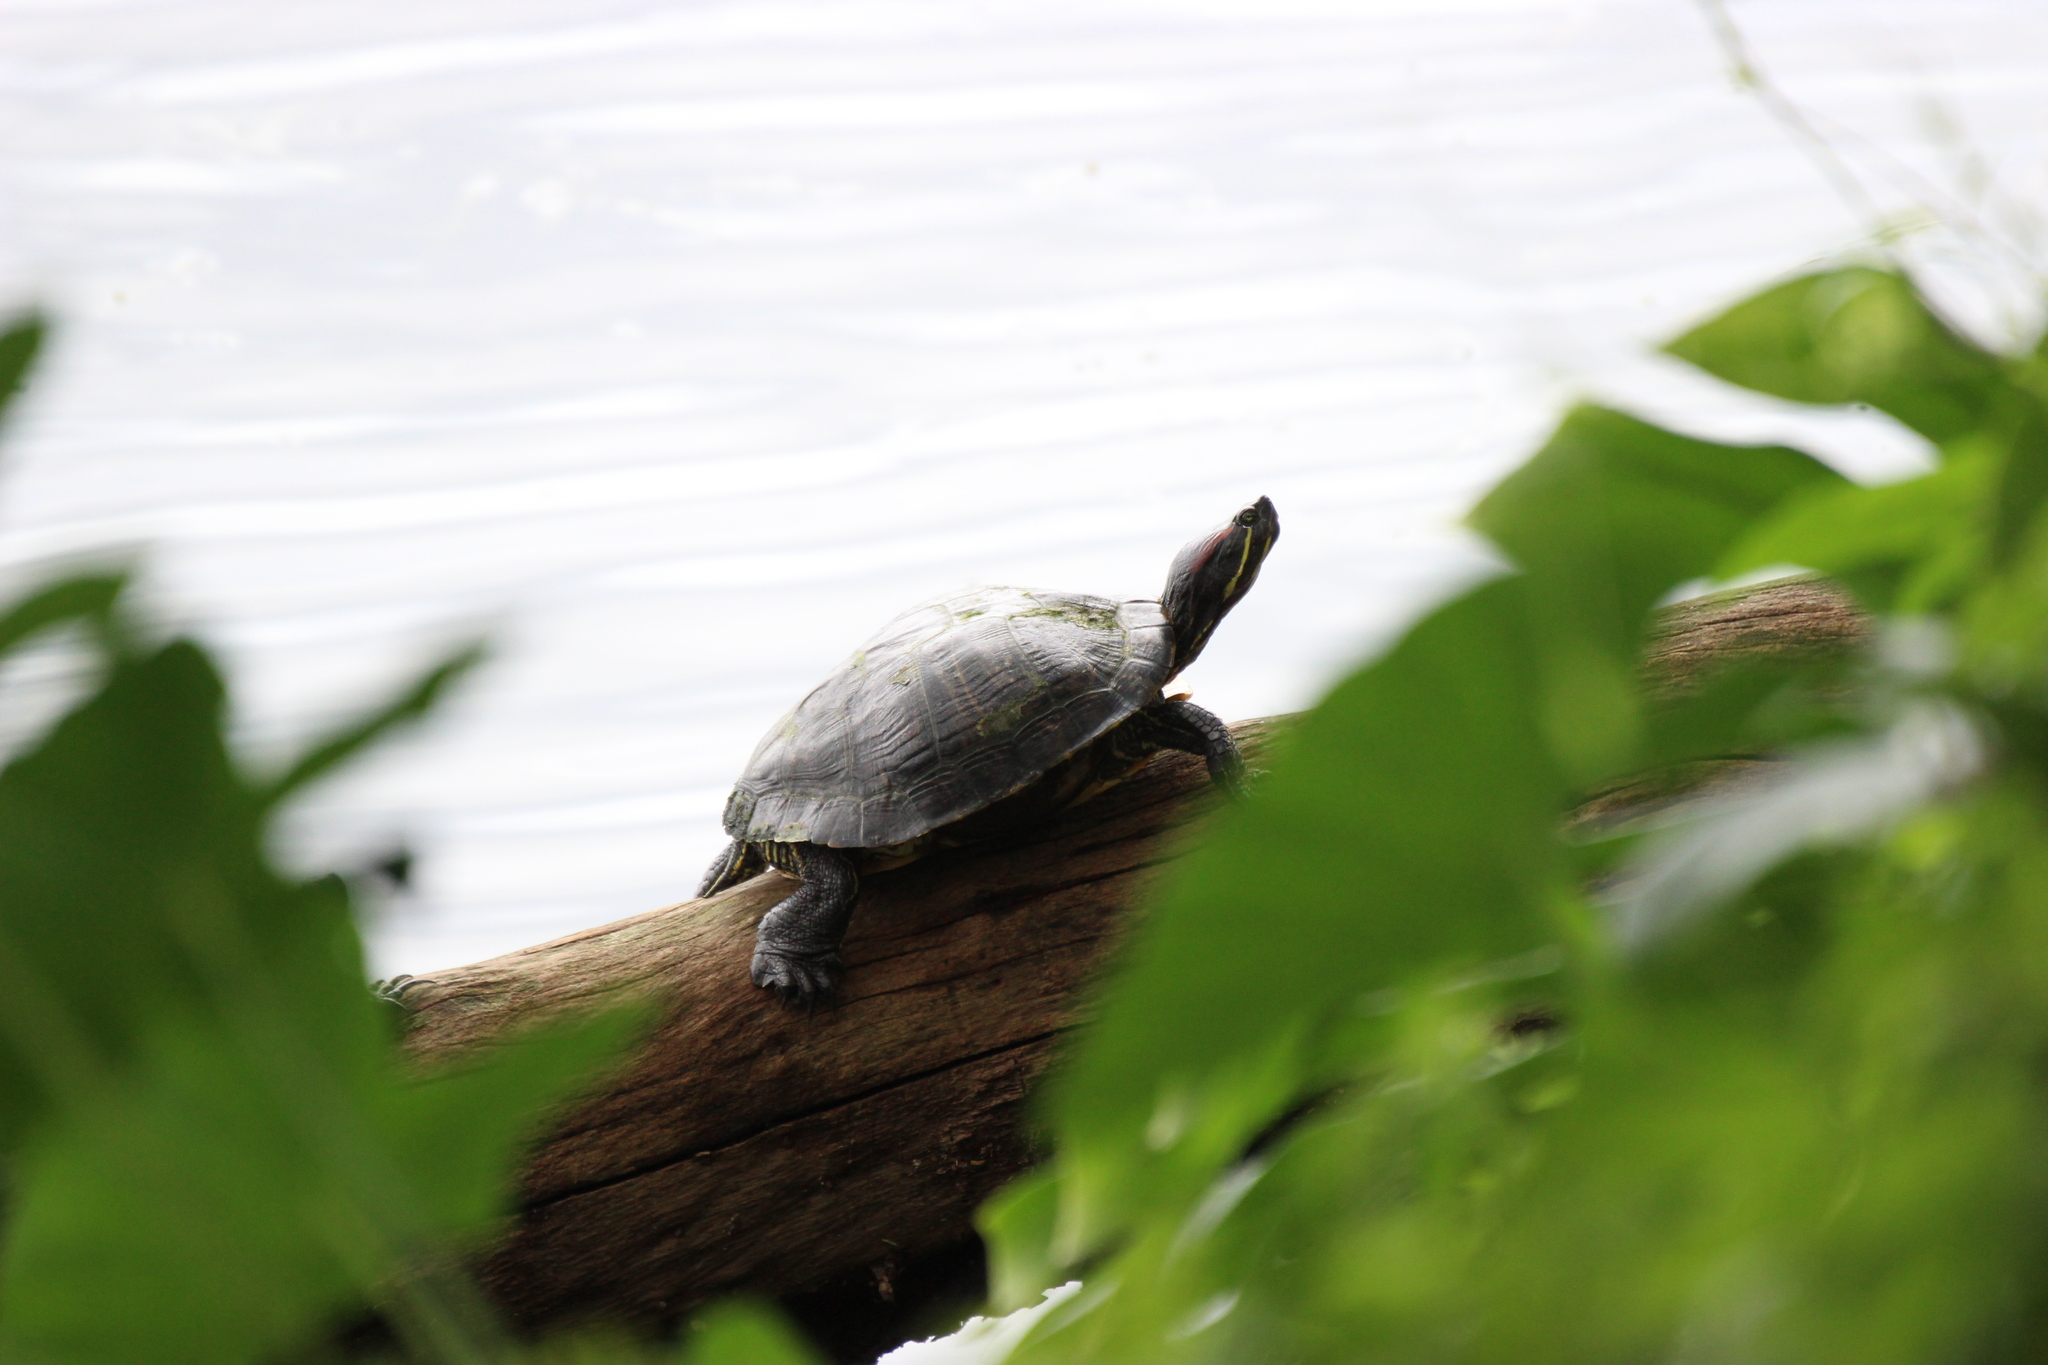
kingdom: Animalia
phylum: Chordata
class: Testudines
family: Emydidae
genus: Trachemys
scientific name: Trachemys scripta
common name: Slider
